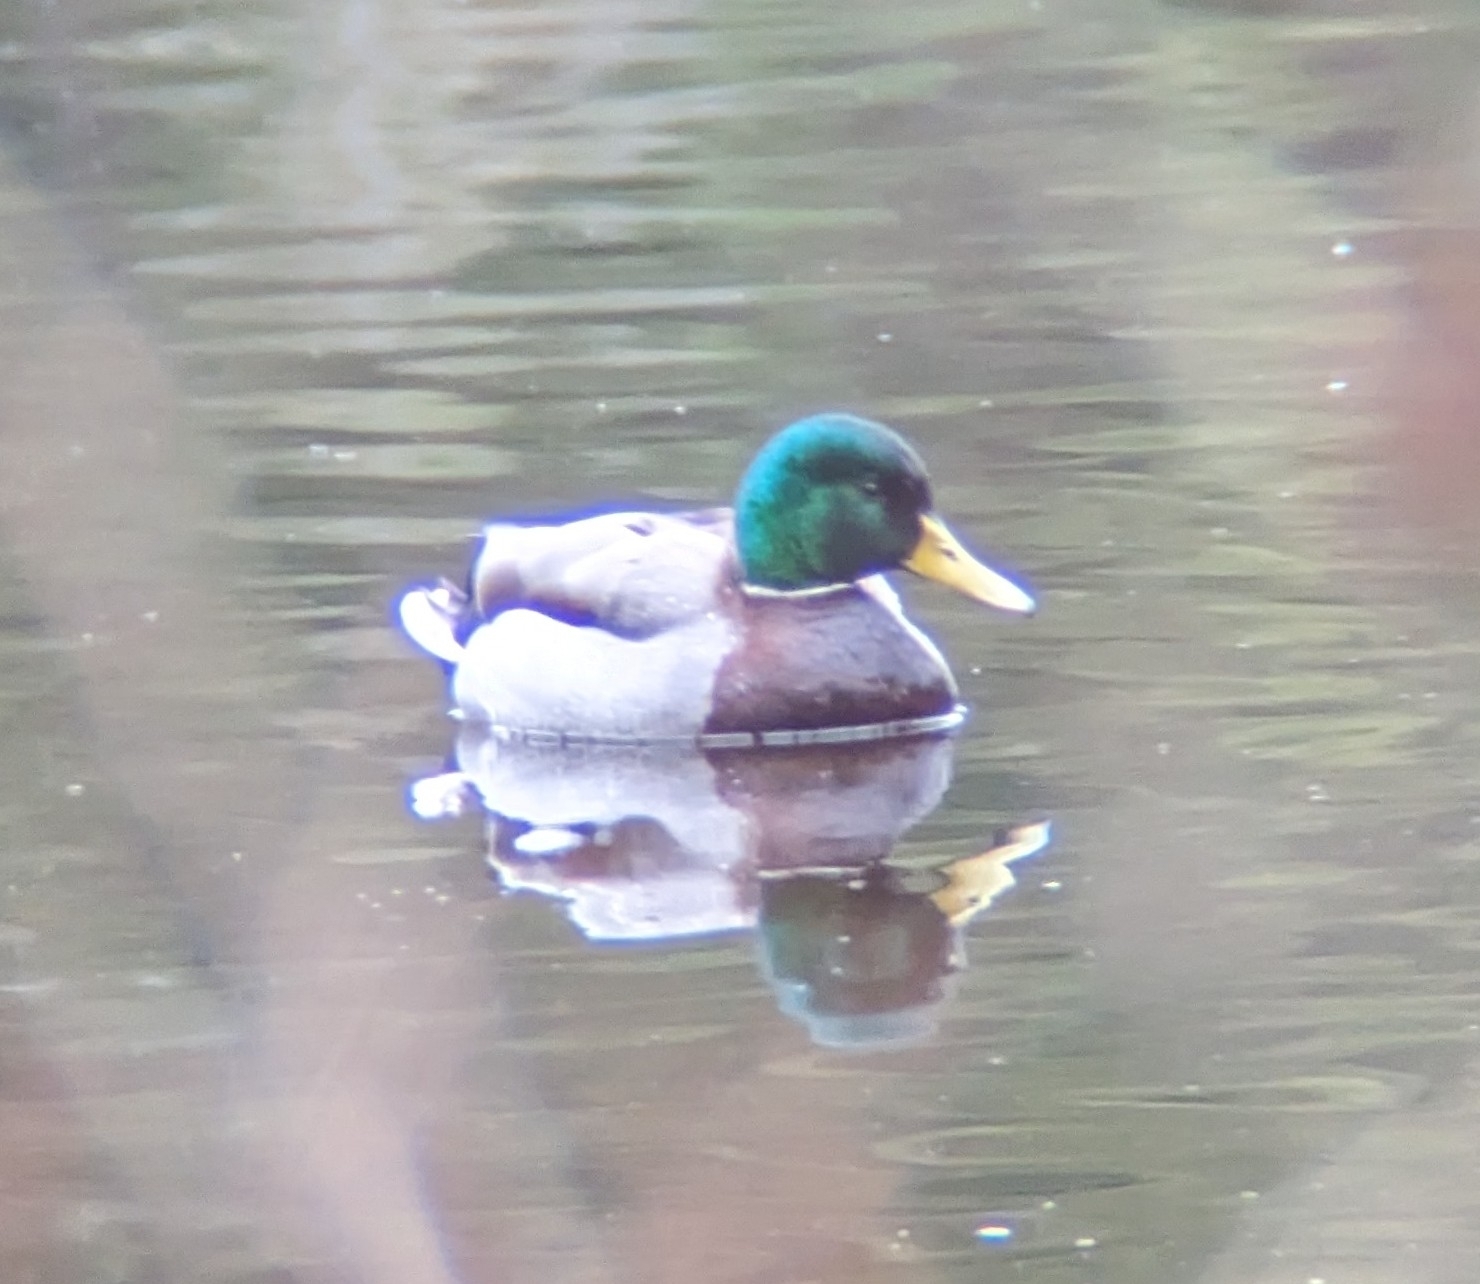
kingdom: Animalia
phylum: Chordata
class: Aves
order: Anseriformes
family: Anatidae
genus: Anas
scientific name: Anas platyrhynchos
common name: Mallard
